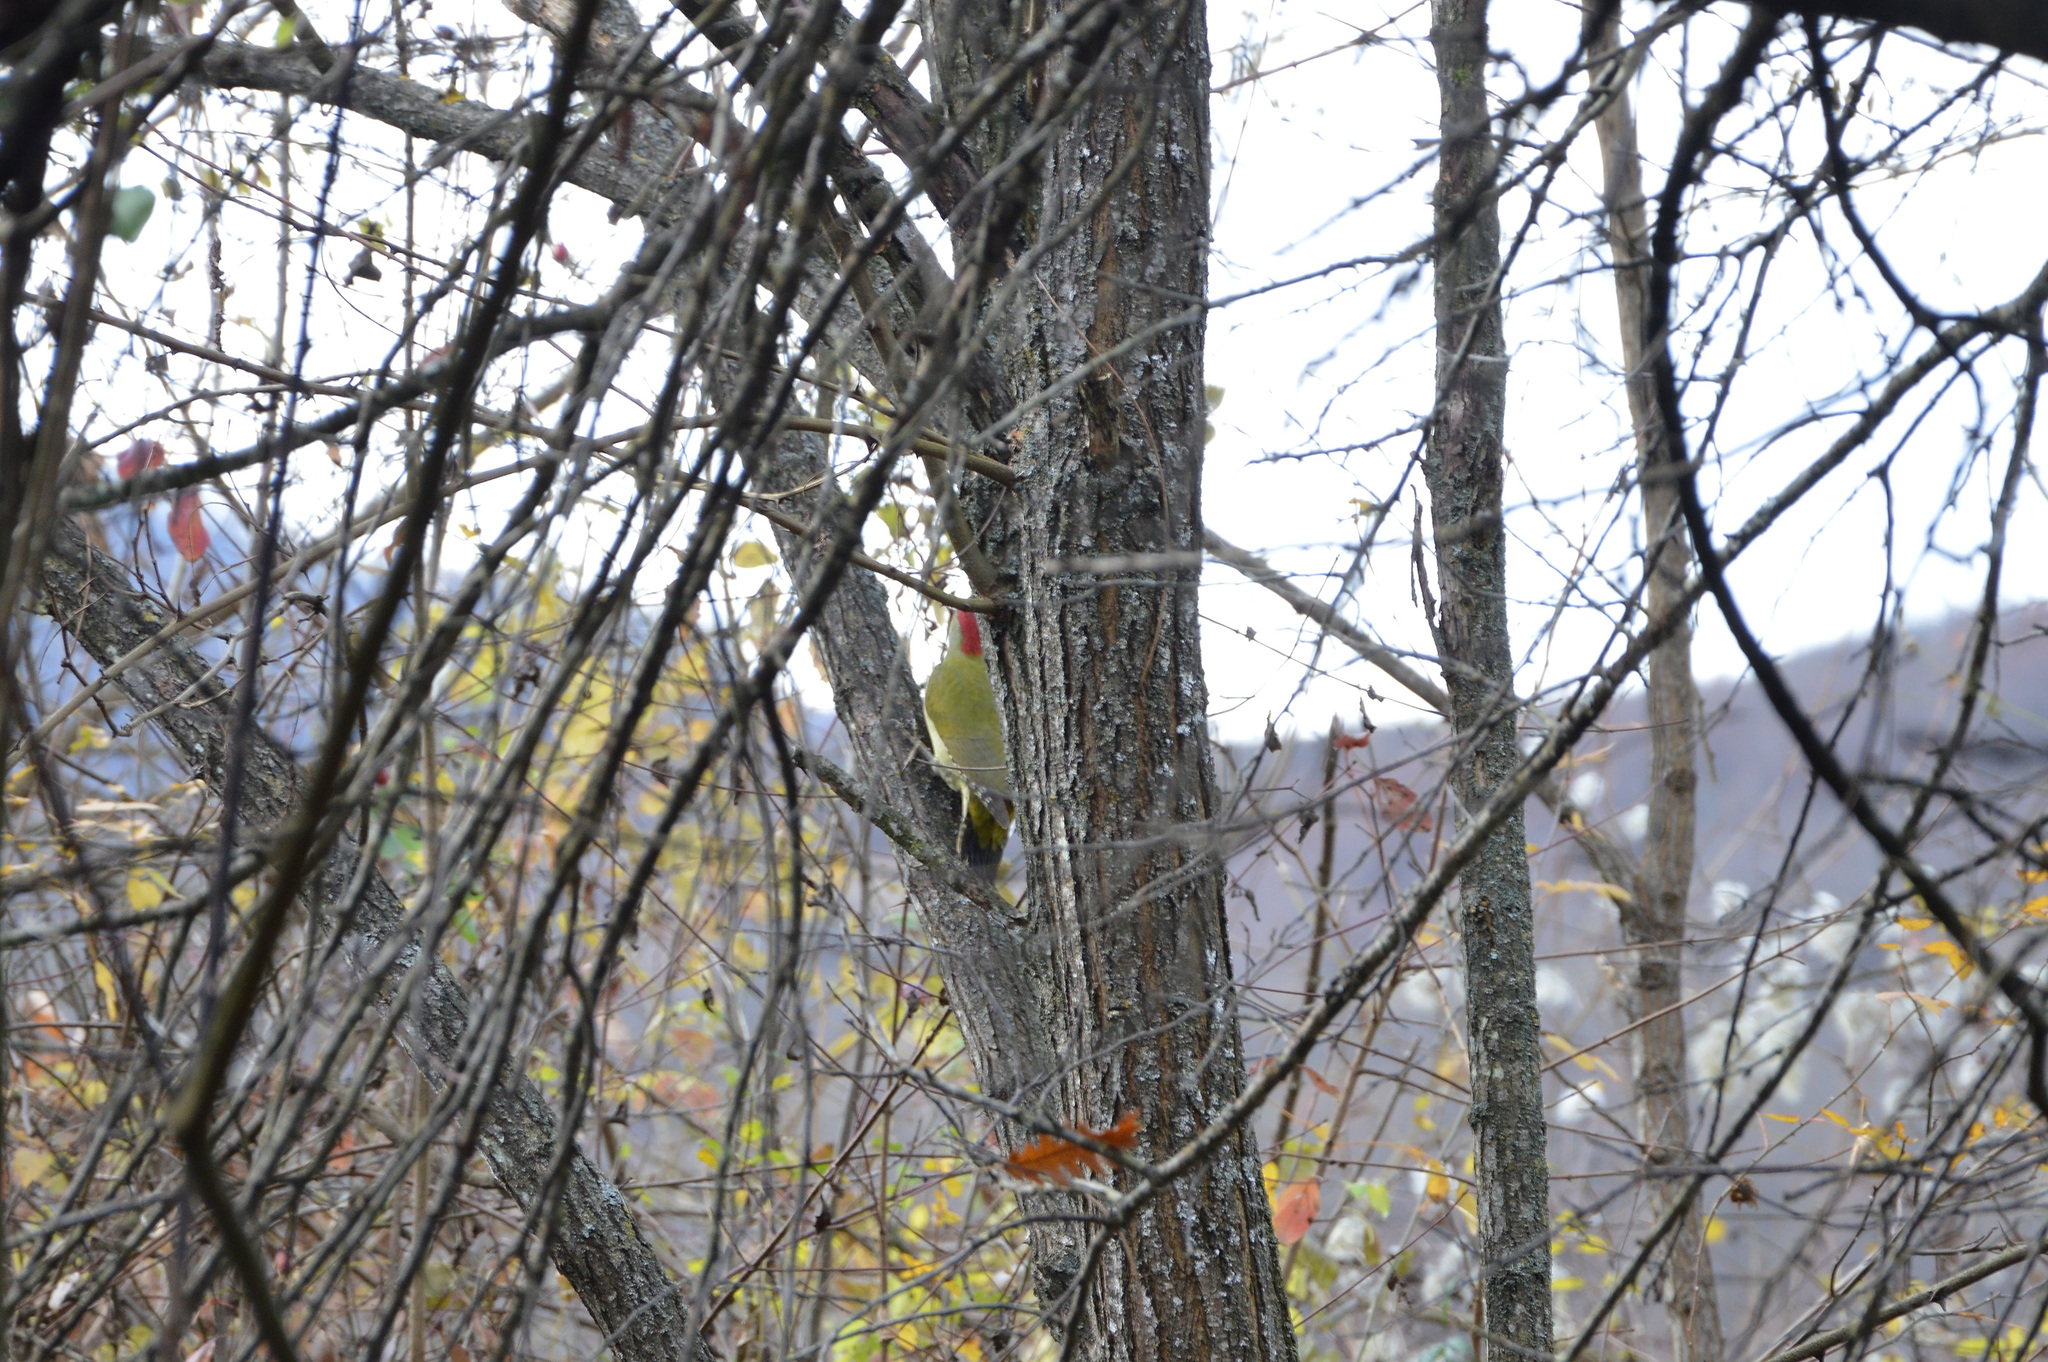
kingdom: Animalia
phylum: Chordata
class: Aves
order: Piciformes
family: Picidae
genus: Picus
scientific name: Picus viridis
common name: European green woodpecker
